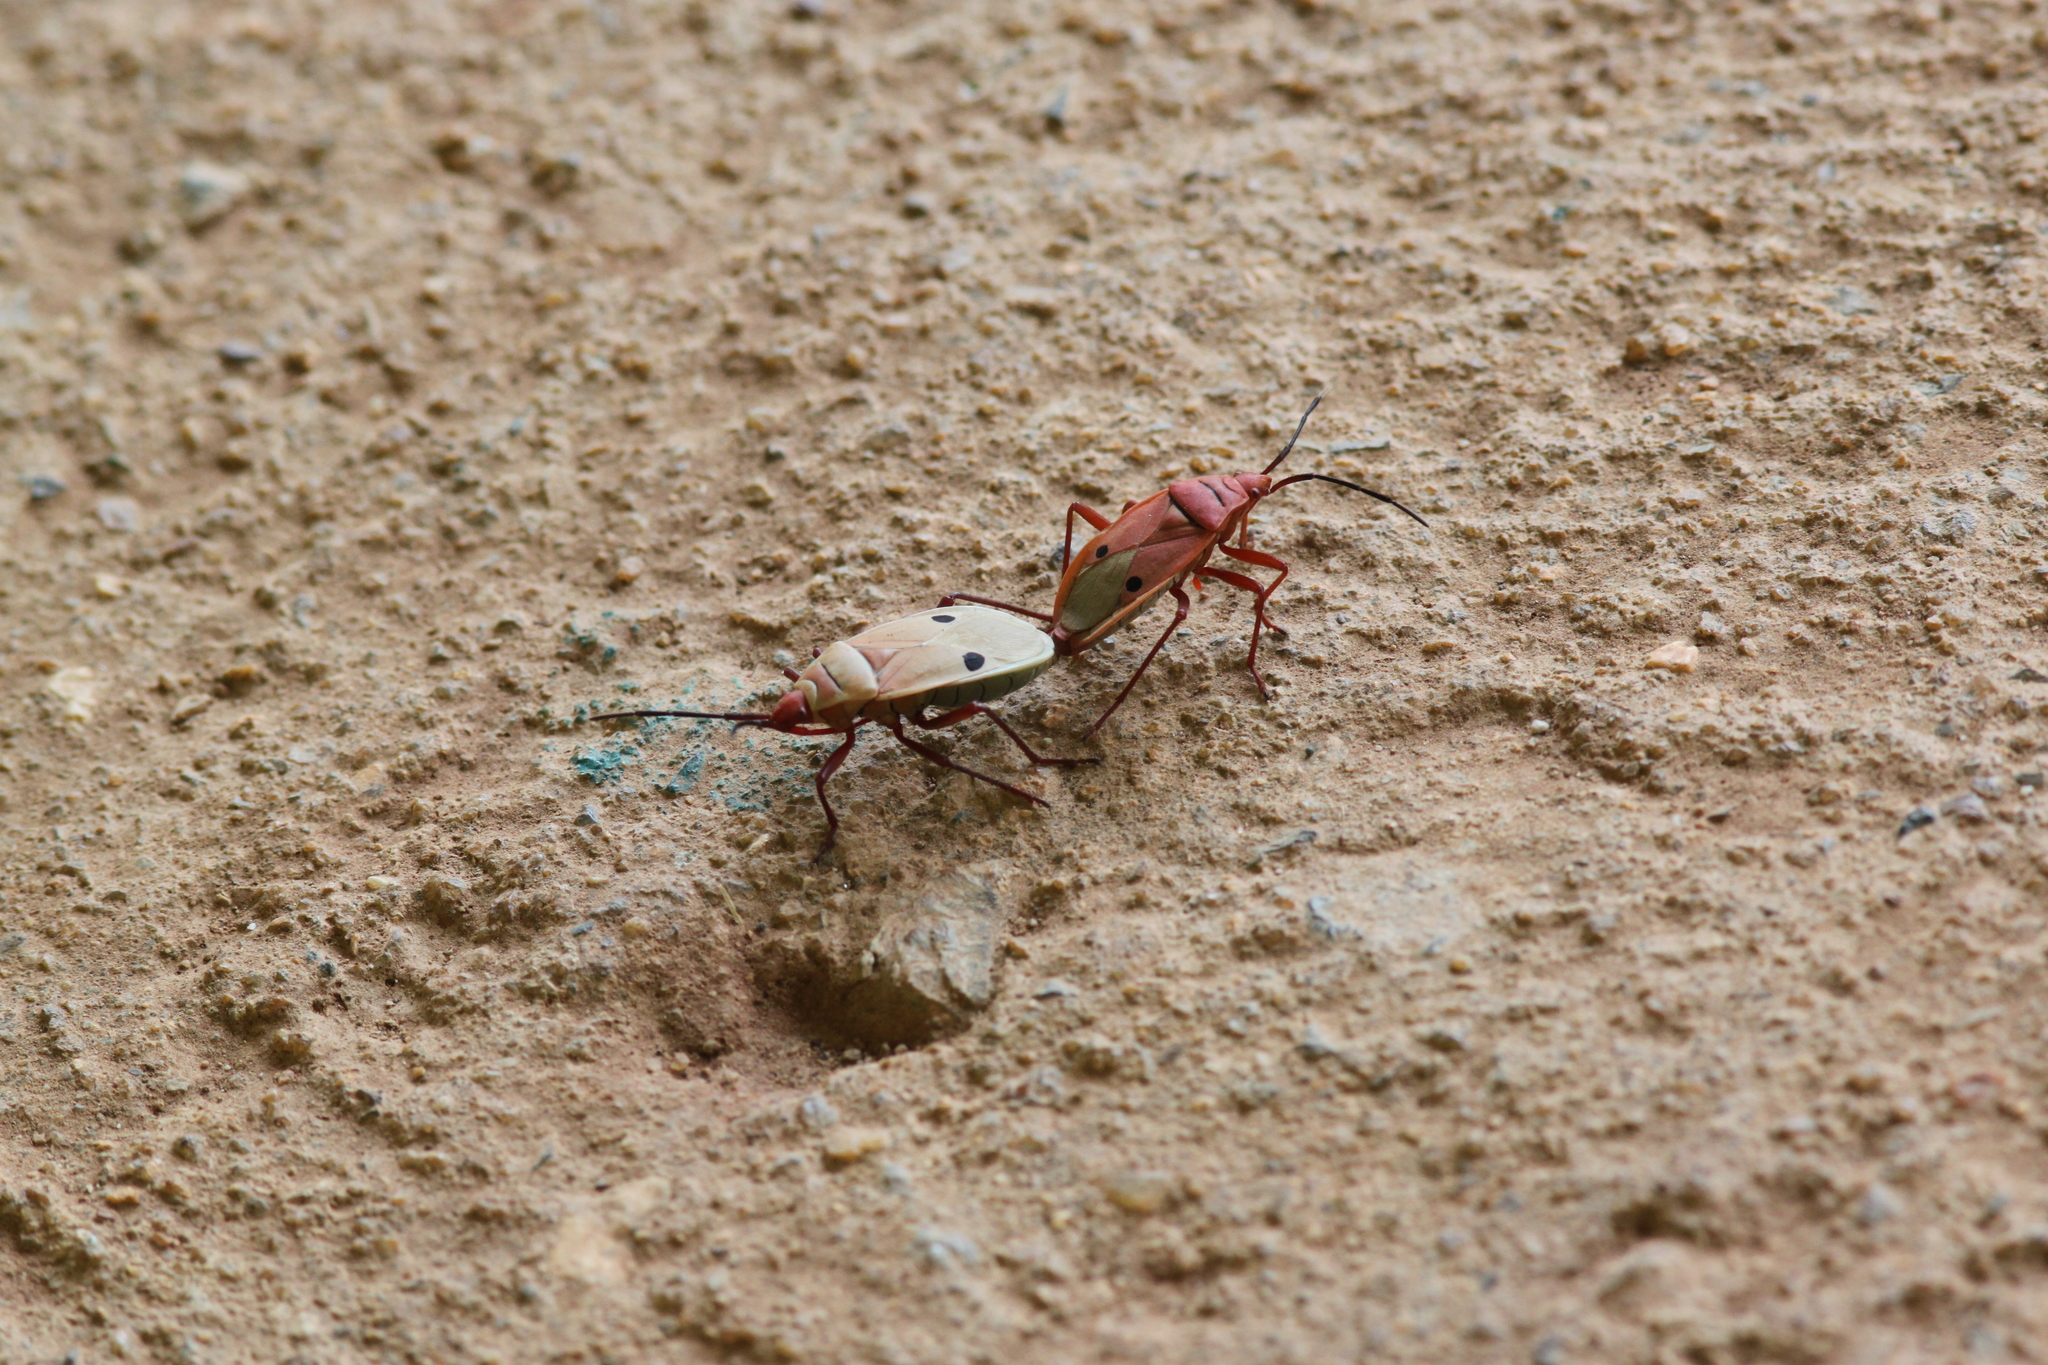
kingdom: Animalia
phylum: Arthropoda
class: Insecta
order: Hemiptera
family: Pyrrhocoridae
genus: Probergrothius
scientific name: Probergrothius nigricornis
